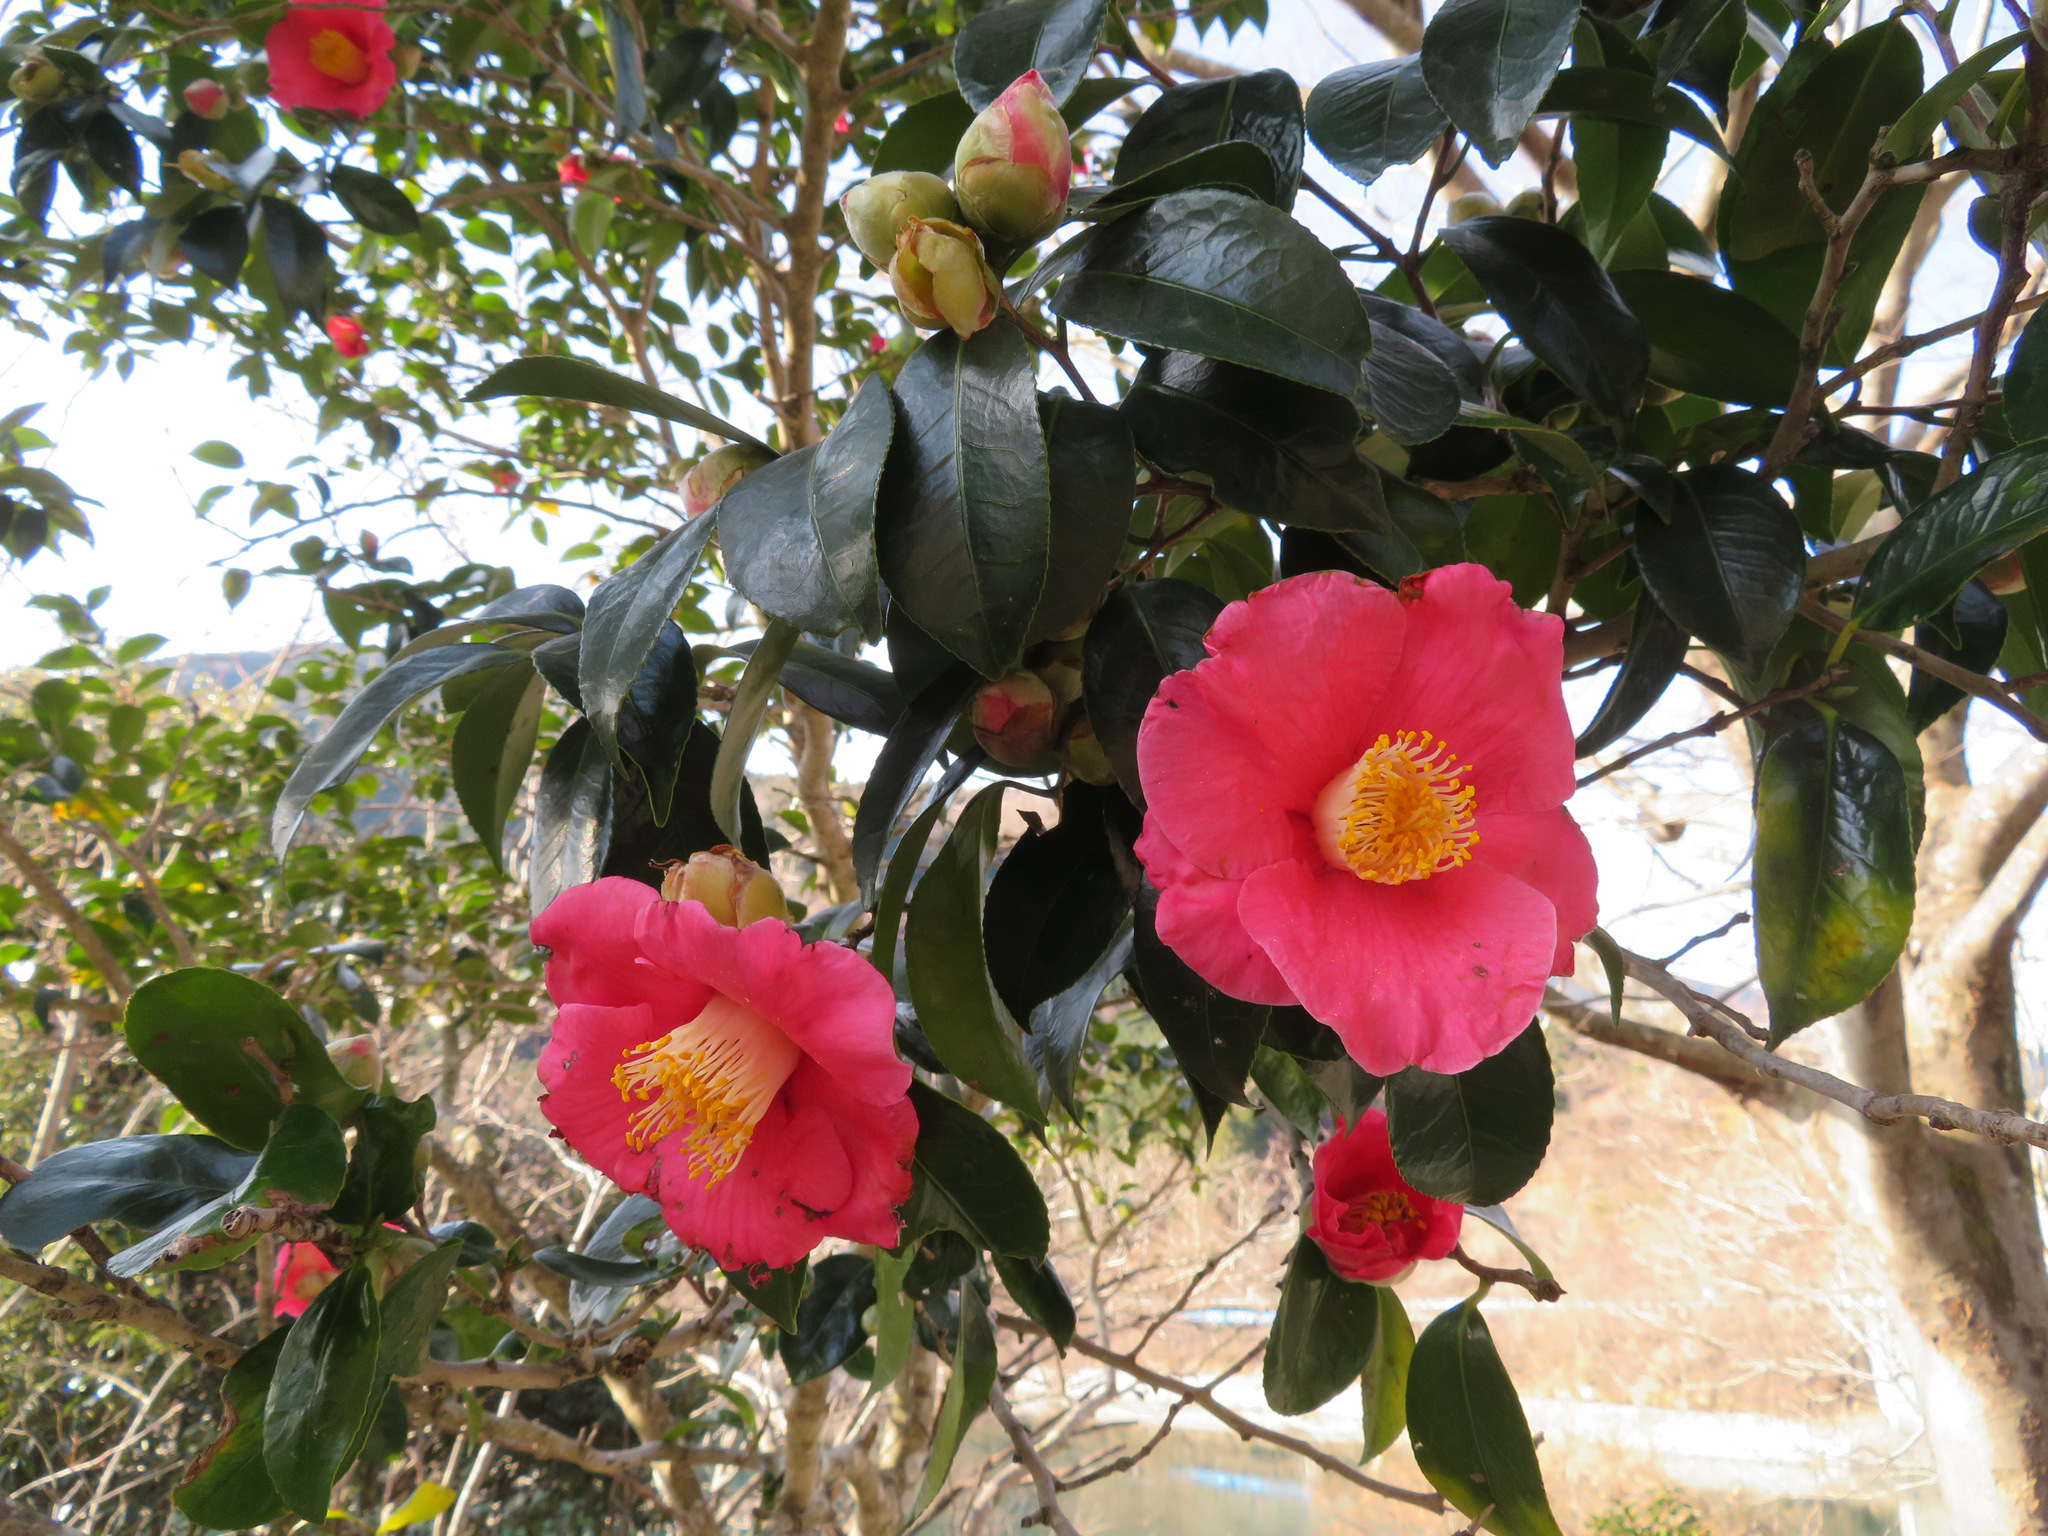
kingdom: Plantae
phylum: Tracheophyta
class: Magnoliopsida
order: Ericales
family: Theaceae
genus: Camellia
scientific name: Camellia japonica
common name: Camellia
